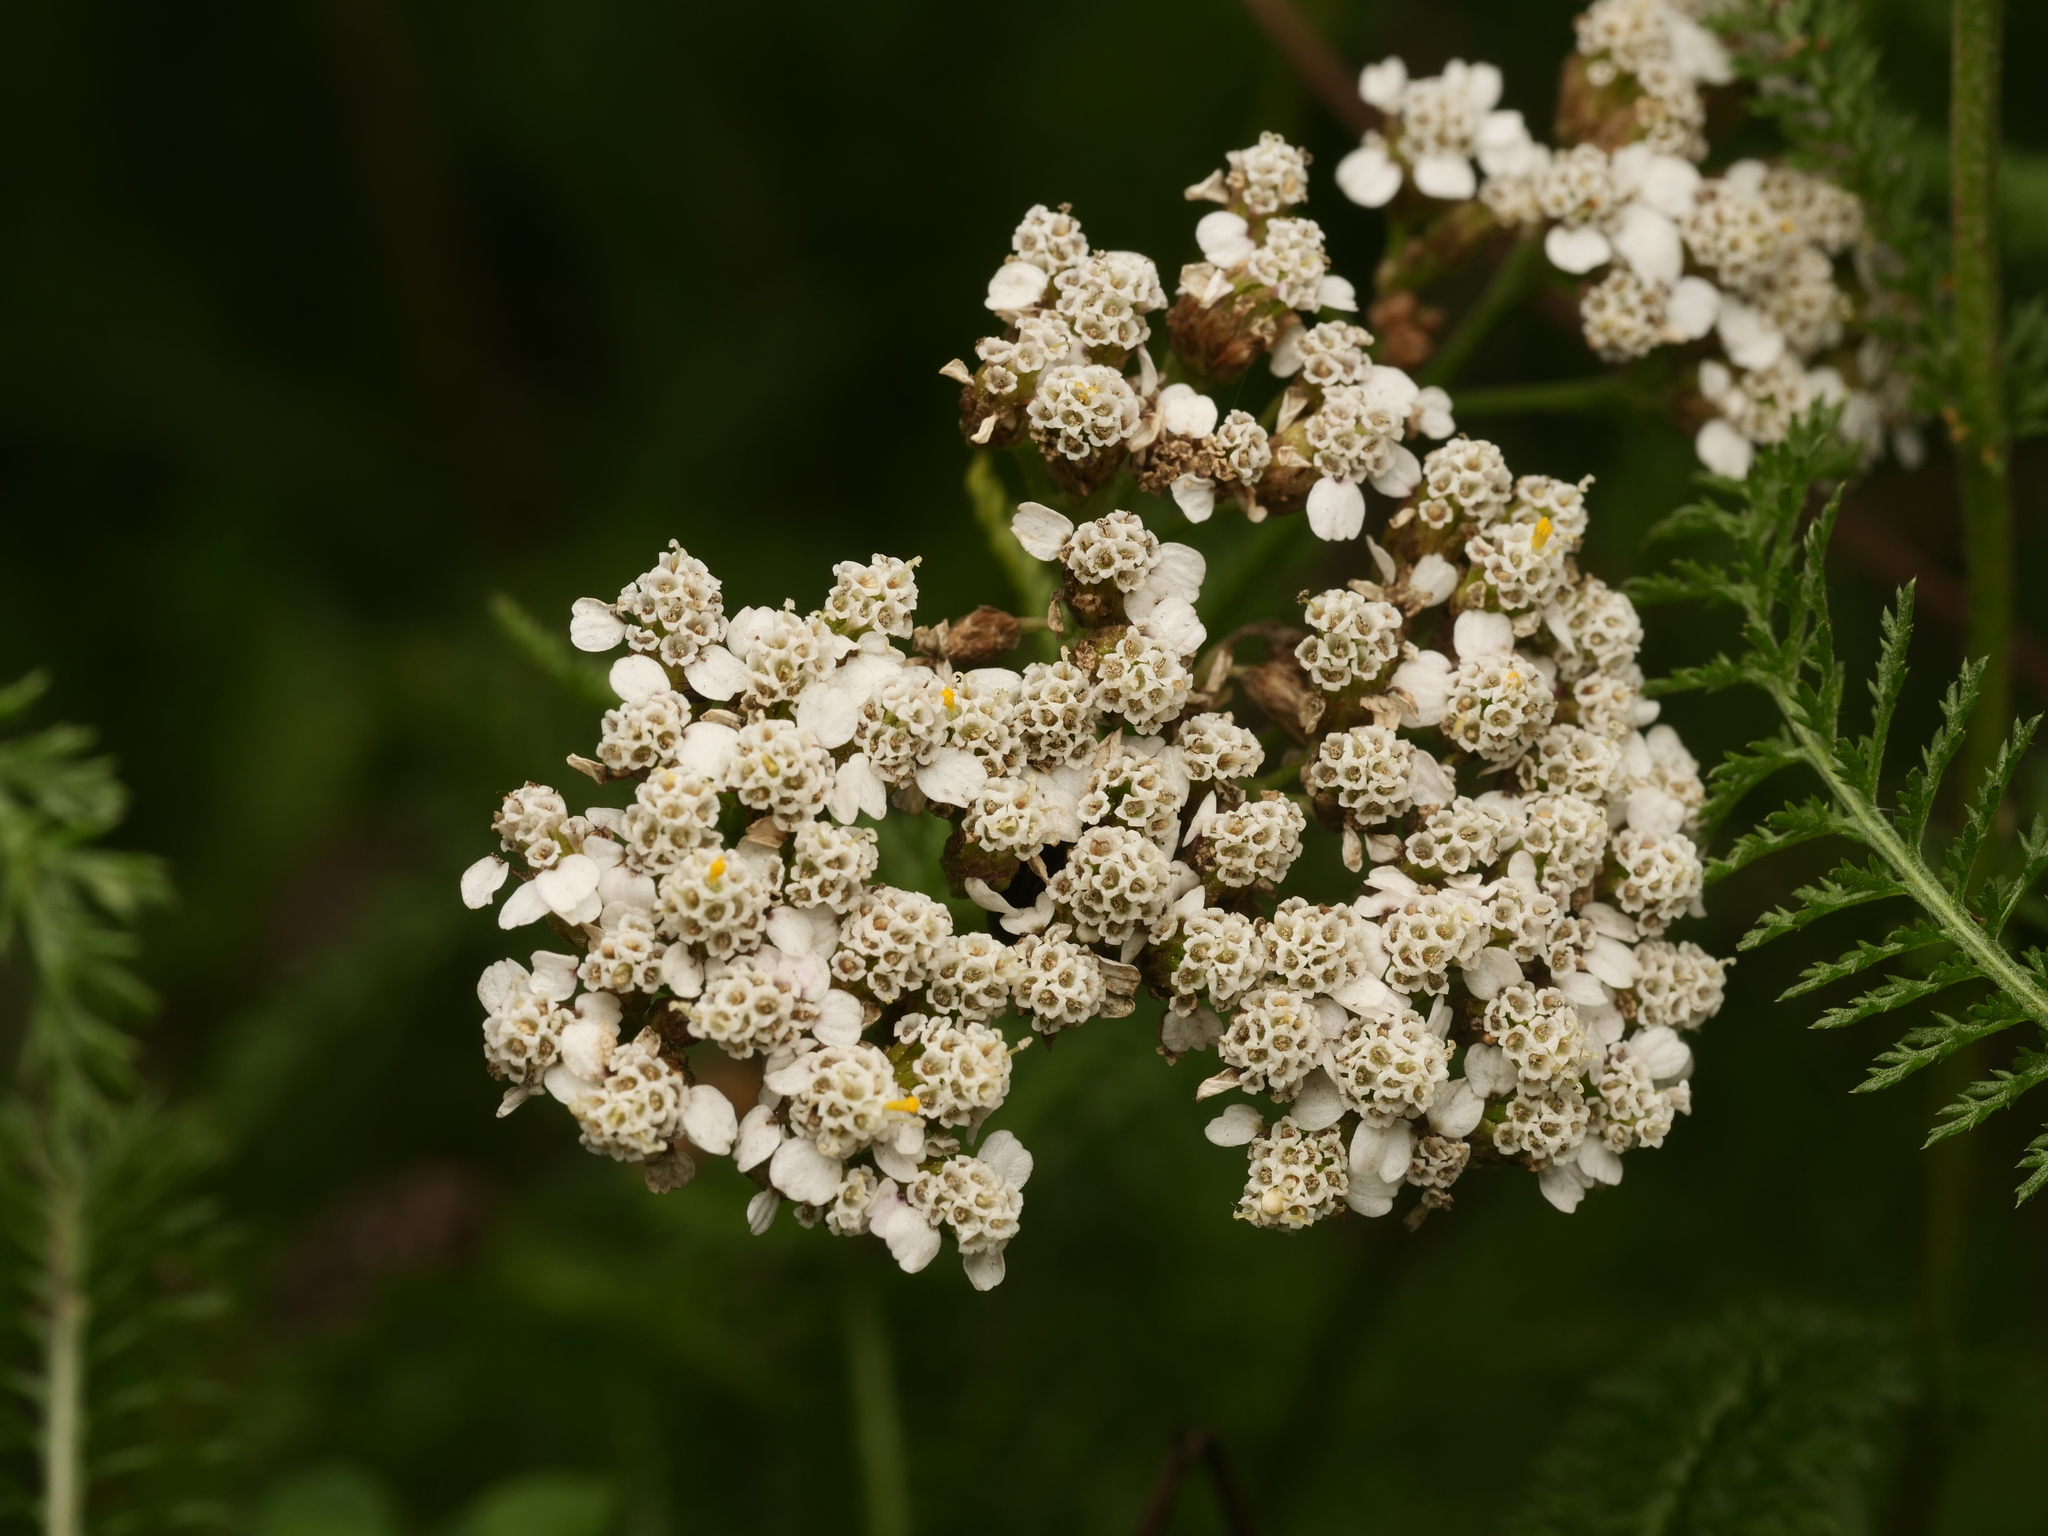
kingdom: Plantae
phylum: Tracheophyta
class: Magnoliopsida
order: Asterales
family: Asteraceae
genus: Achillea
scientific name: Achillea millefolium
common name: Yarrow
